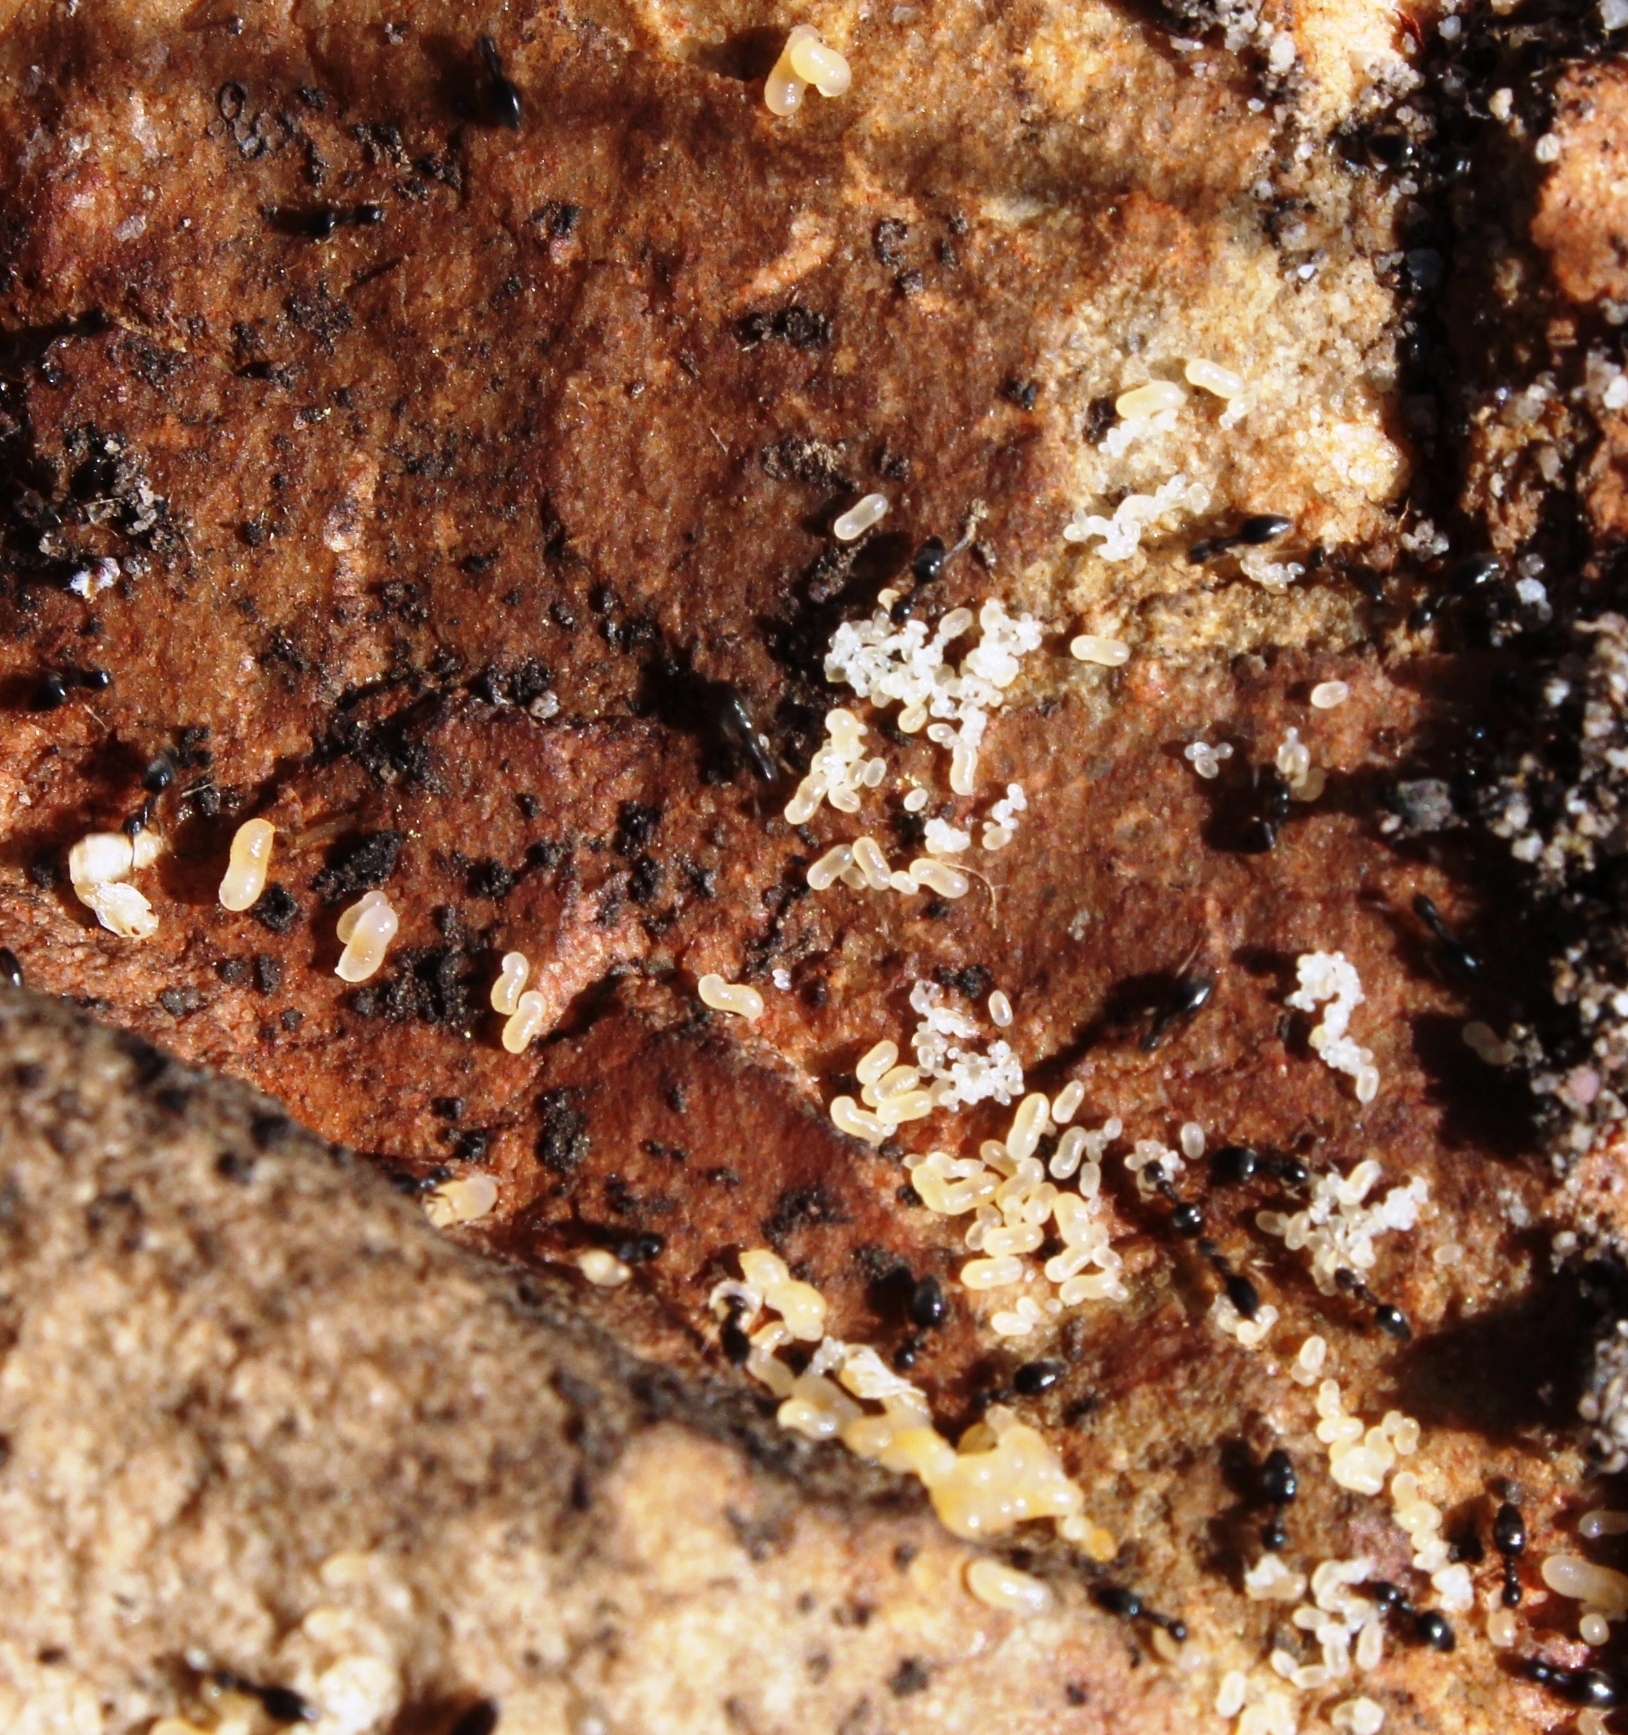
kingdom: Animalia
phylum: Arthropoda
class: Insecta
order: Hymenoptera
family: Formicidae
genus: Tapinoma
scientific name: Tapinoma pallipes
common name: Ant
